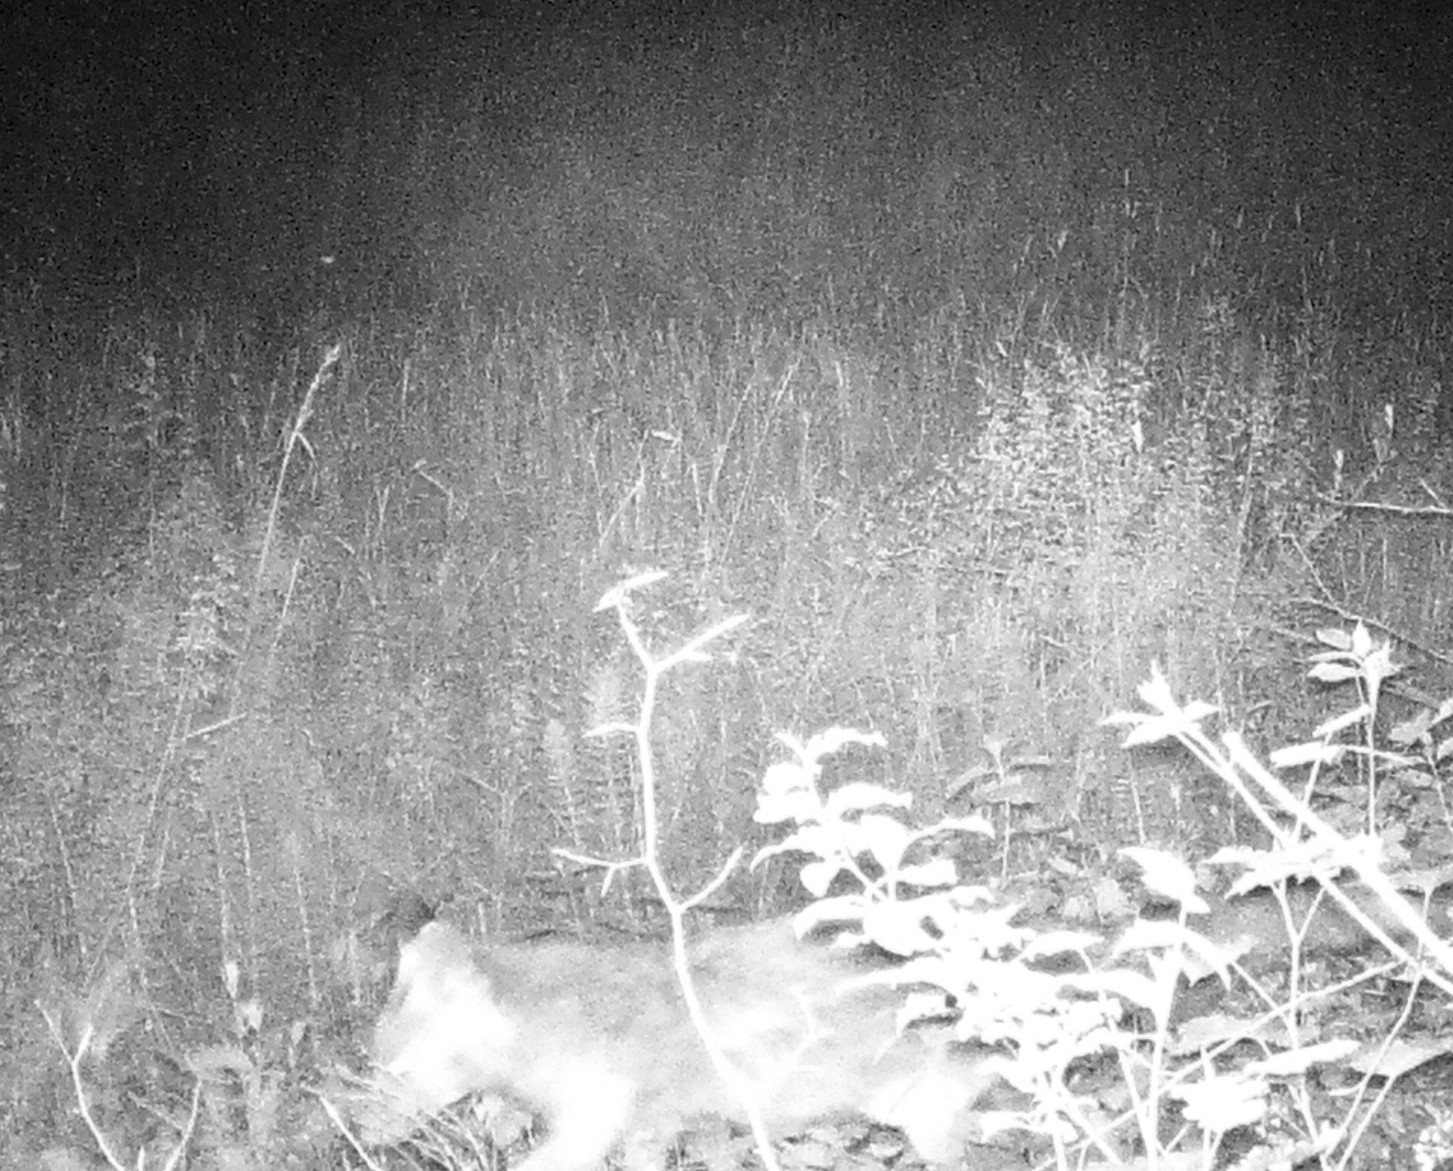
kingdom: Animalia
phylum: Chordata
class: Mammalia
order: Carnivora
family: Canidae
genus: Vulpes
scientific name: Vulpes vulpes
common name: Red fox
